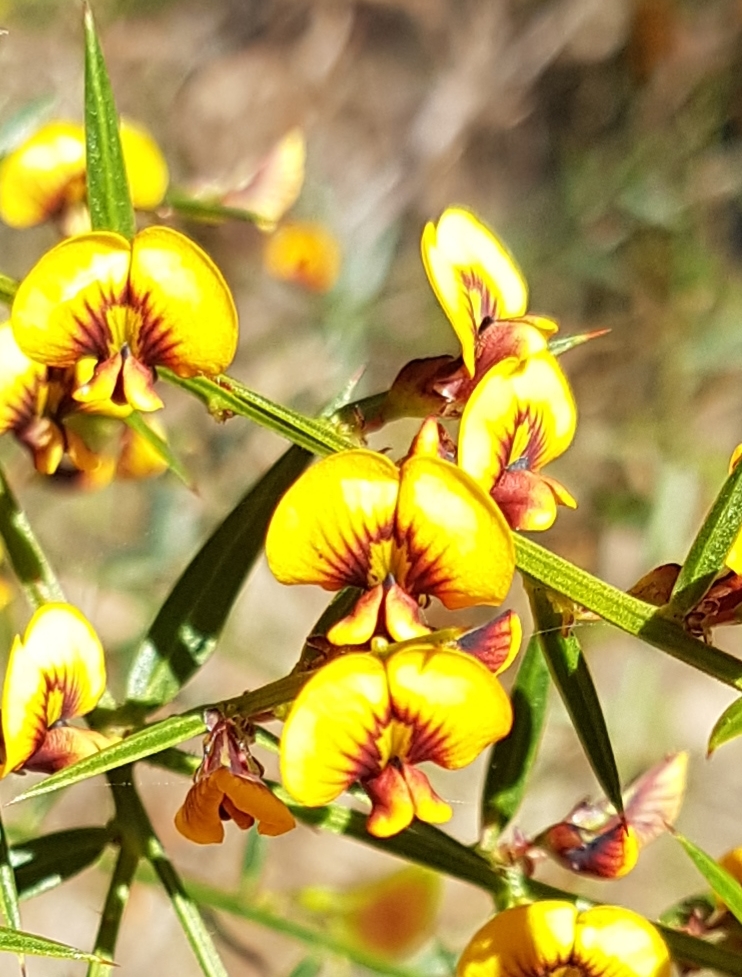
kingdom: Plantae
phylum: Tracheophyta
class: Magnoliopsida
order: Fabales
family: Fabaceae
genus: Daviesia
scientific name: Daviesia ulicifolia
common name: Gorse bitter-pea
